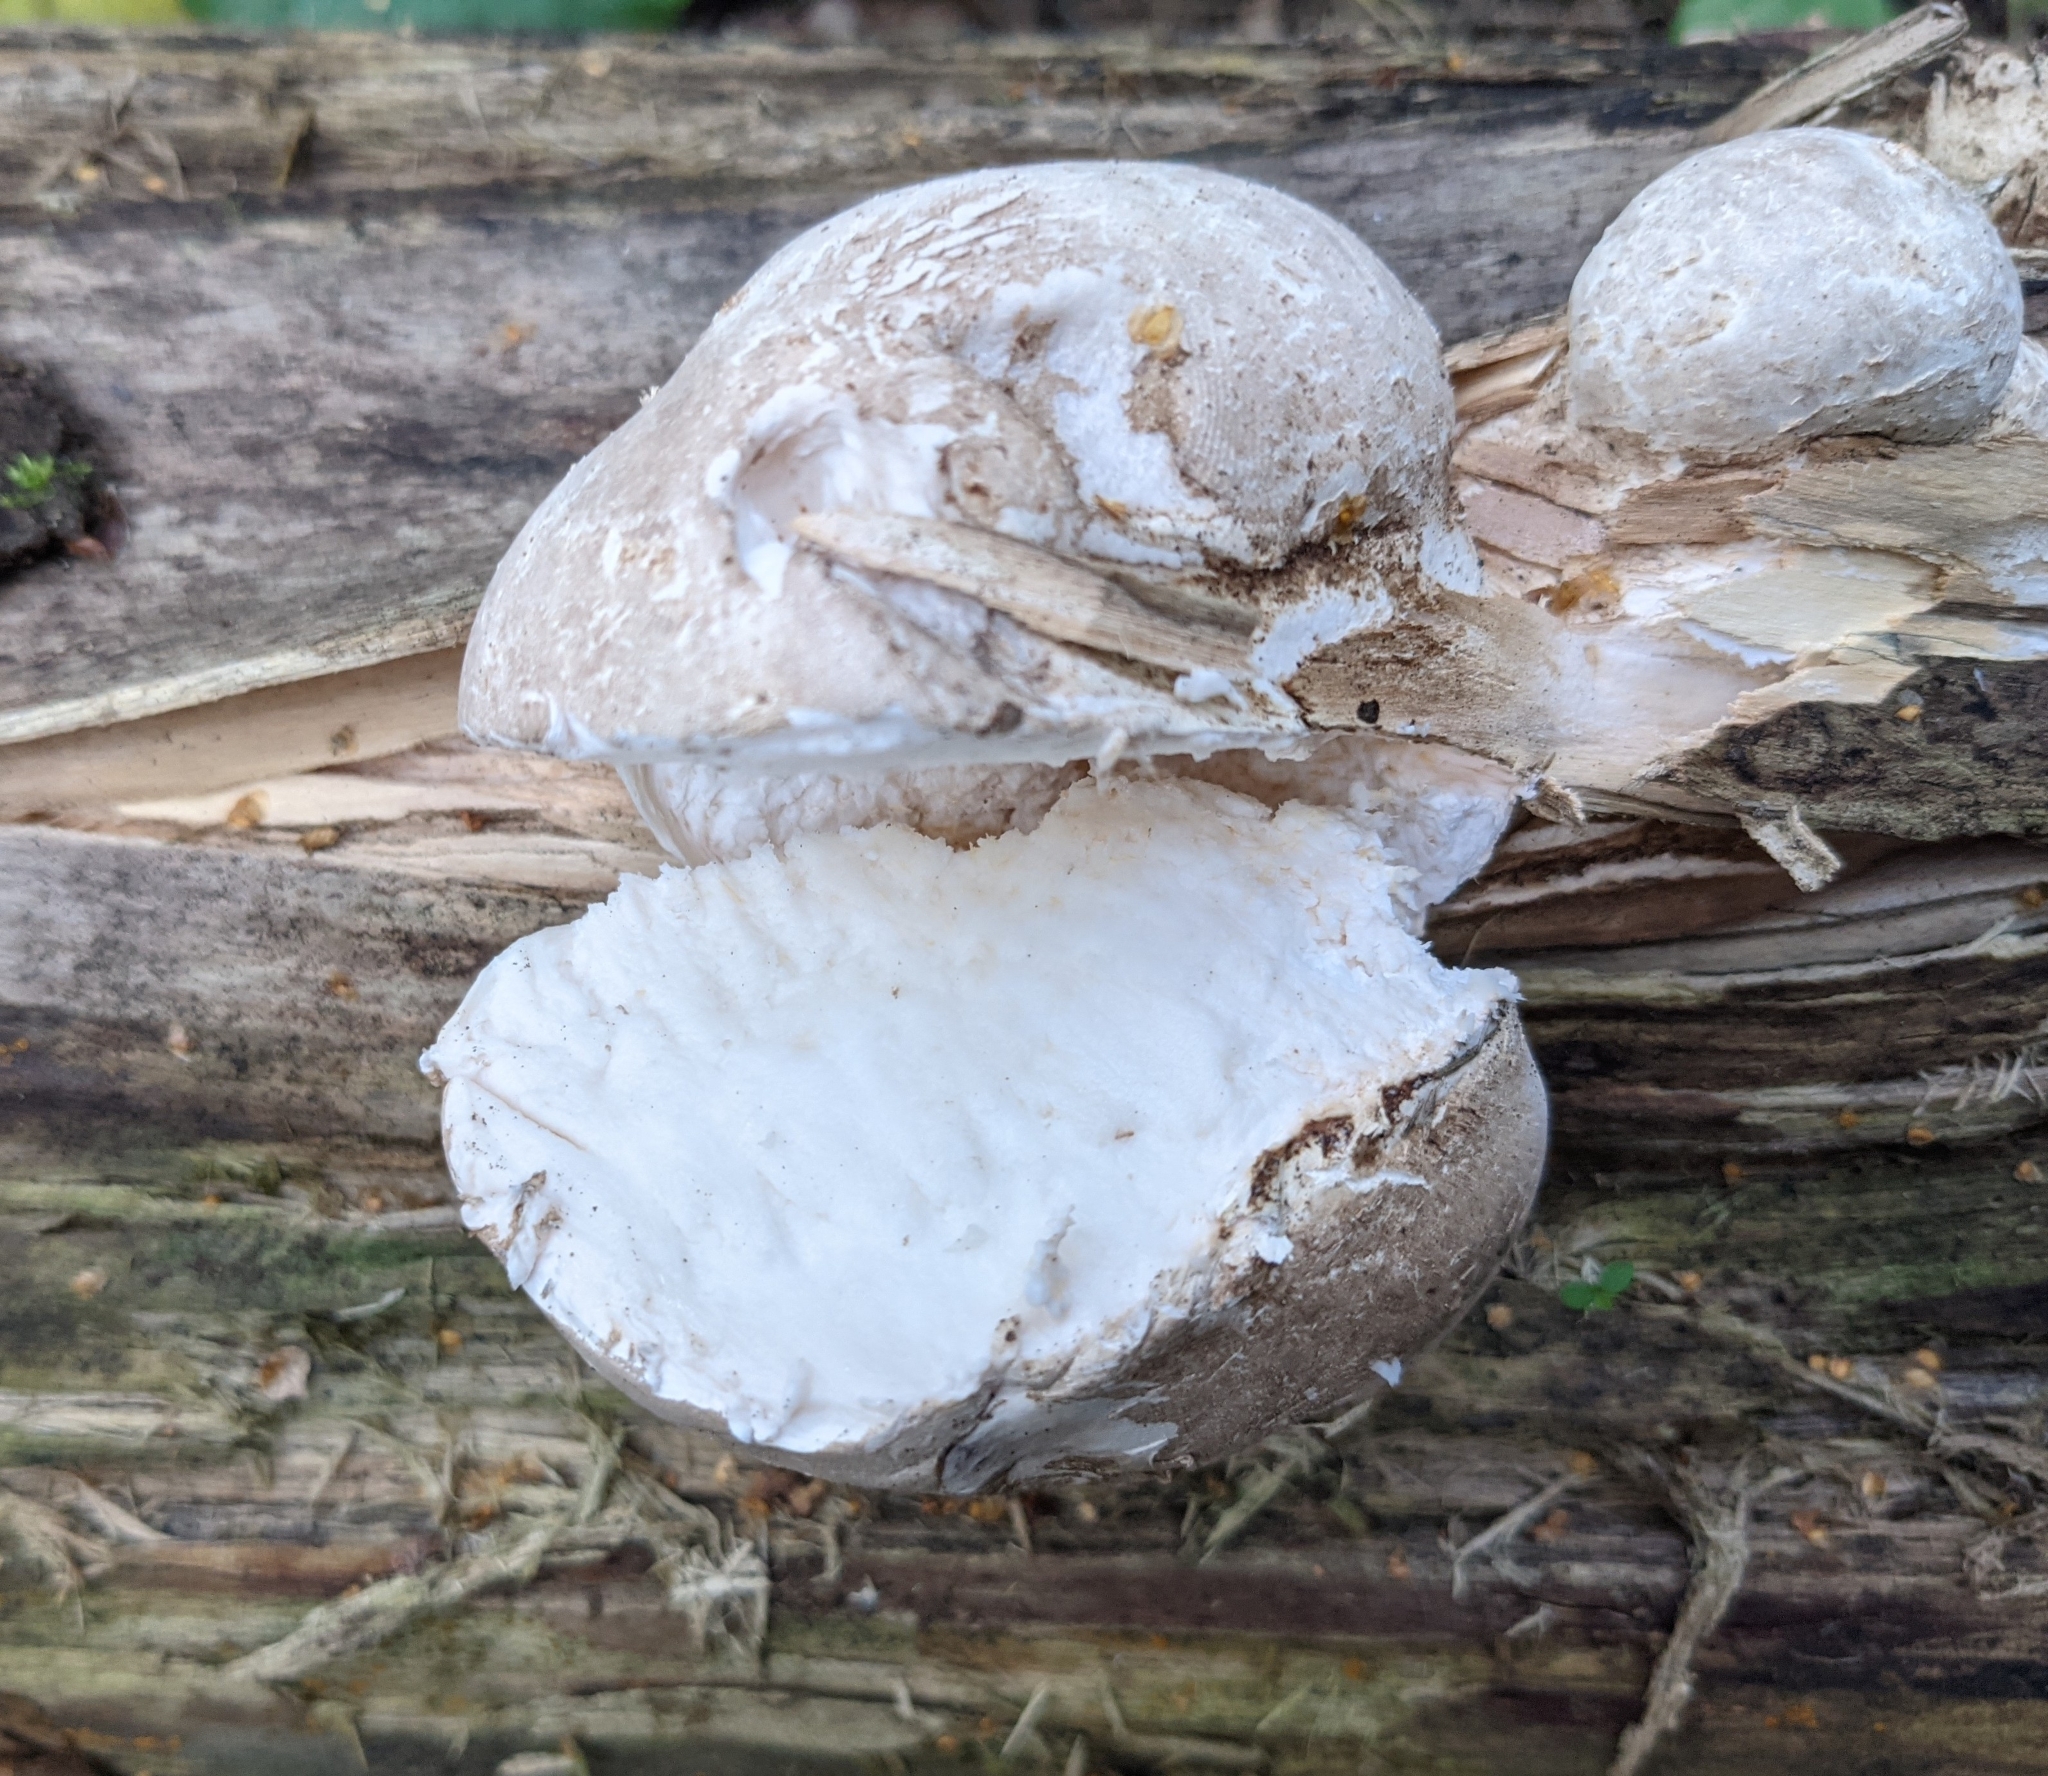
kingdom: Fungi
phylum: Basidiomycota
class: Agaricomycetes
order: Polyporales
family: Fomitopsidaceae
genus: Fomitopsis
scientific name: Fomitopsis betulina
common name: Birch polypore
